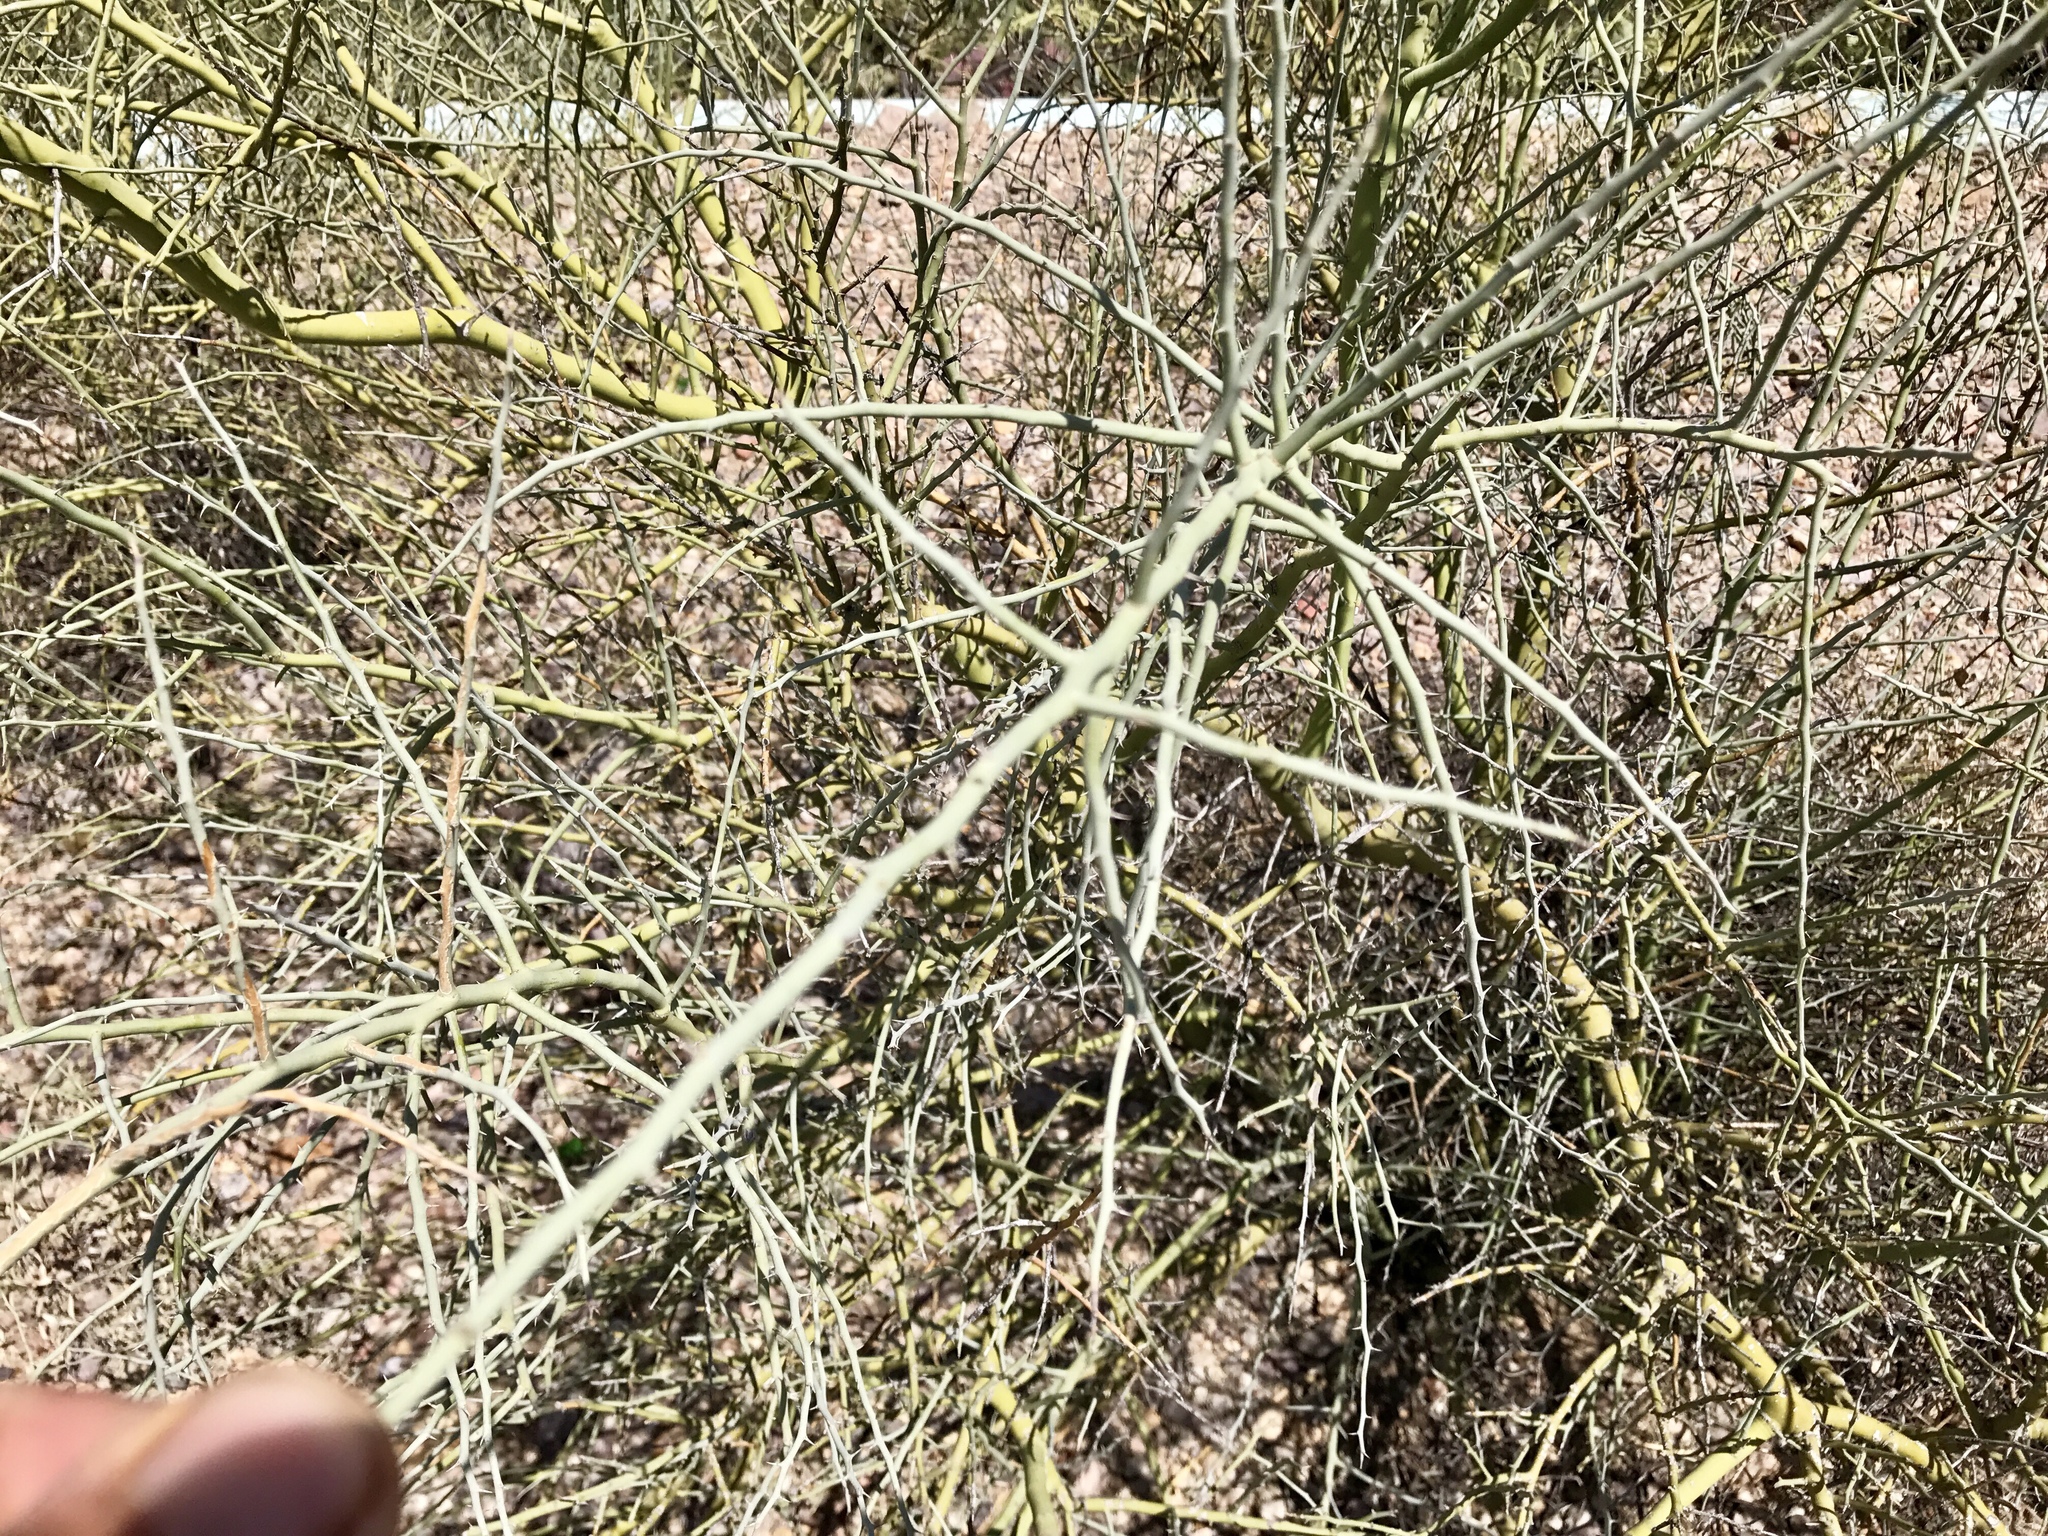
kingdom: Plantae
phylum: Tracheophyta
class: Magnoliopsida
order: Fabales
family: Fabaceae
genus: Parkinsonia
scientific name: Parkinsonia florida
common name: Blue paloverde
